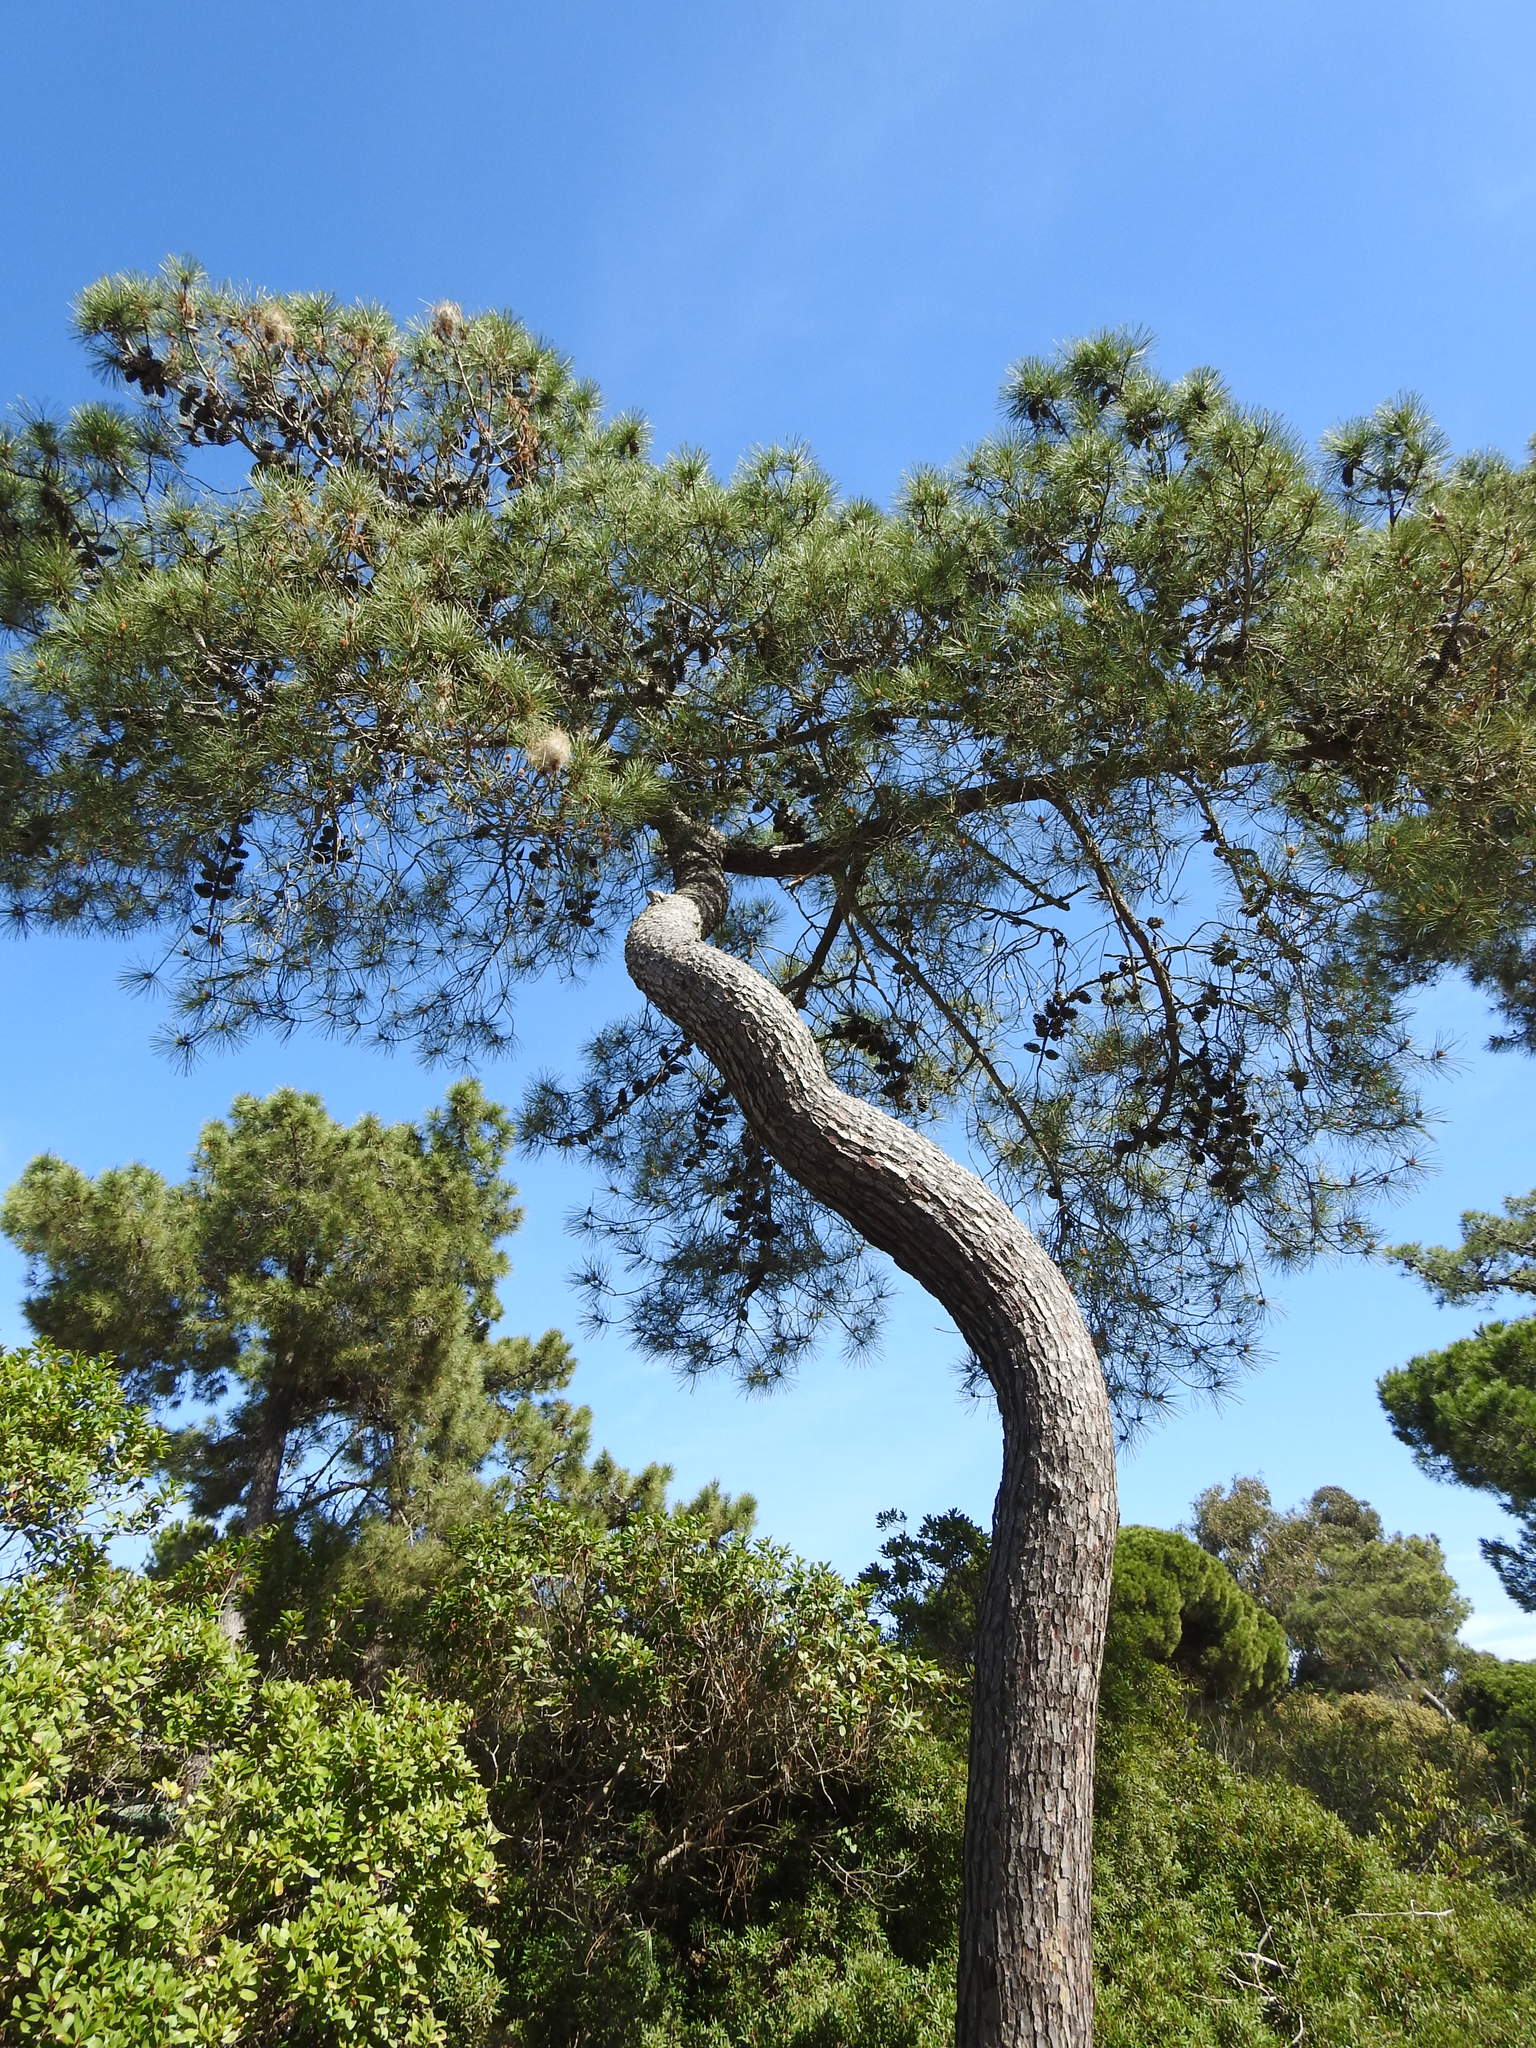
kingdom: Plantae
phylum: Tracheophyta
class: Pinopsida
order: Pinales
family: Pinaceae
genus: Pinus
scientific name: Pinus pinaster
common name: Maritime pine
